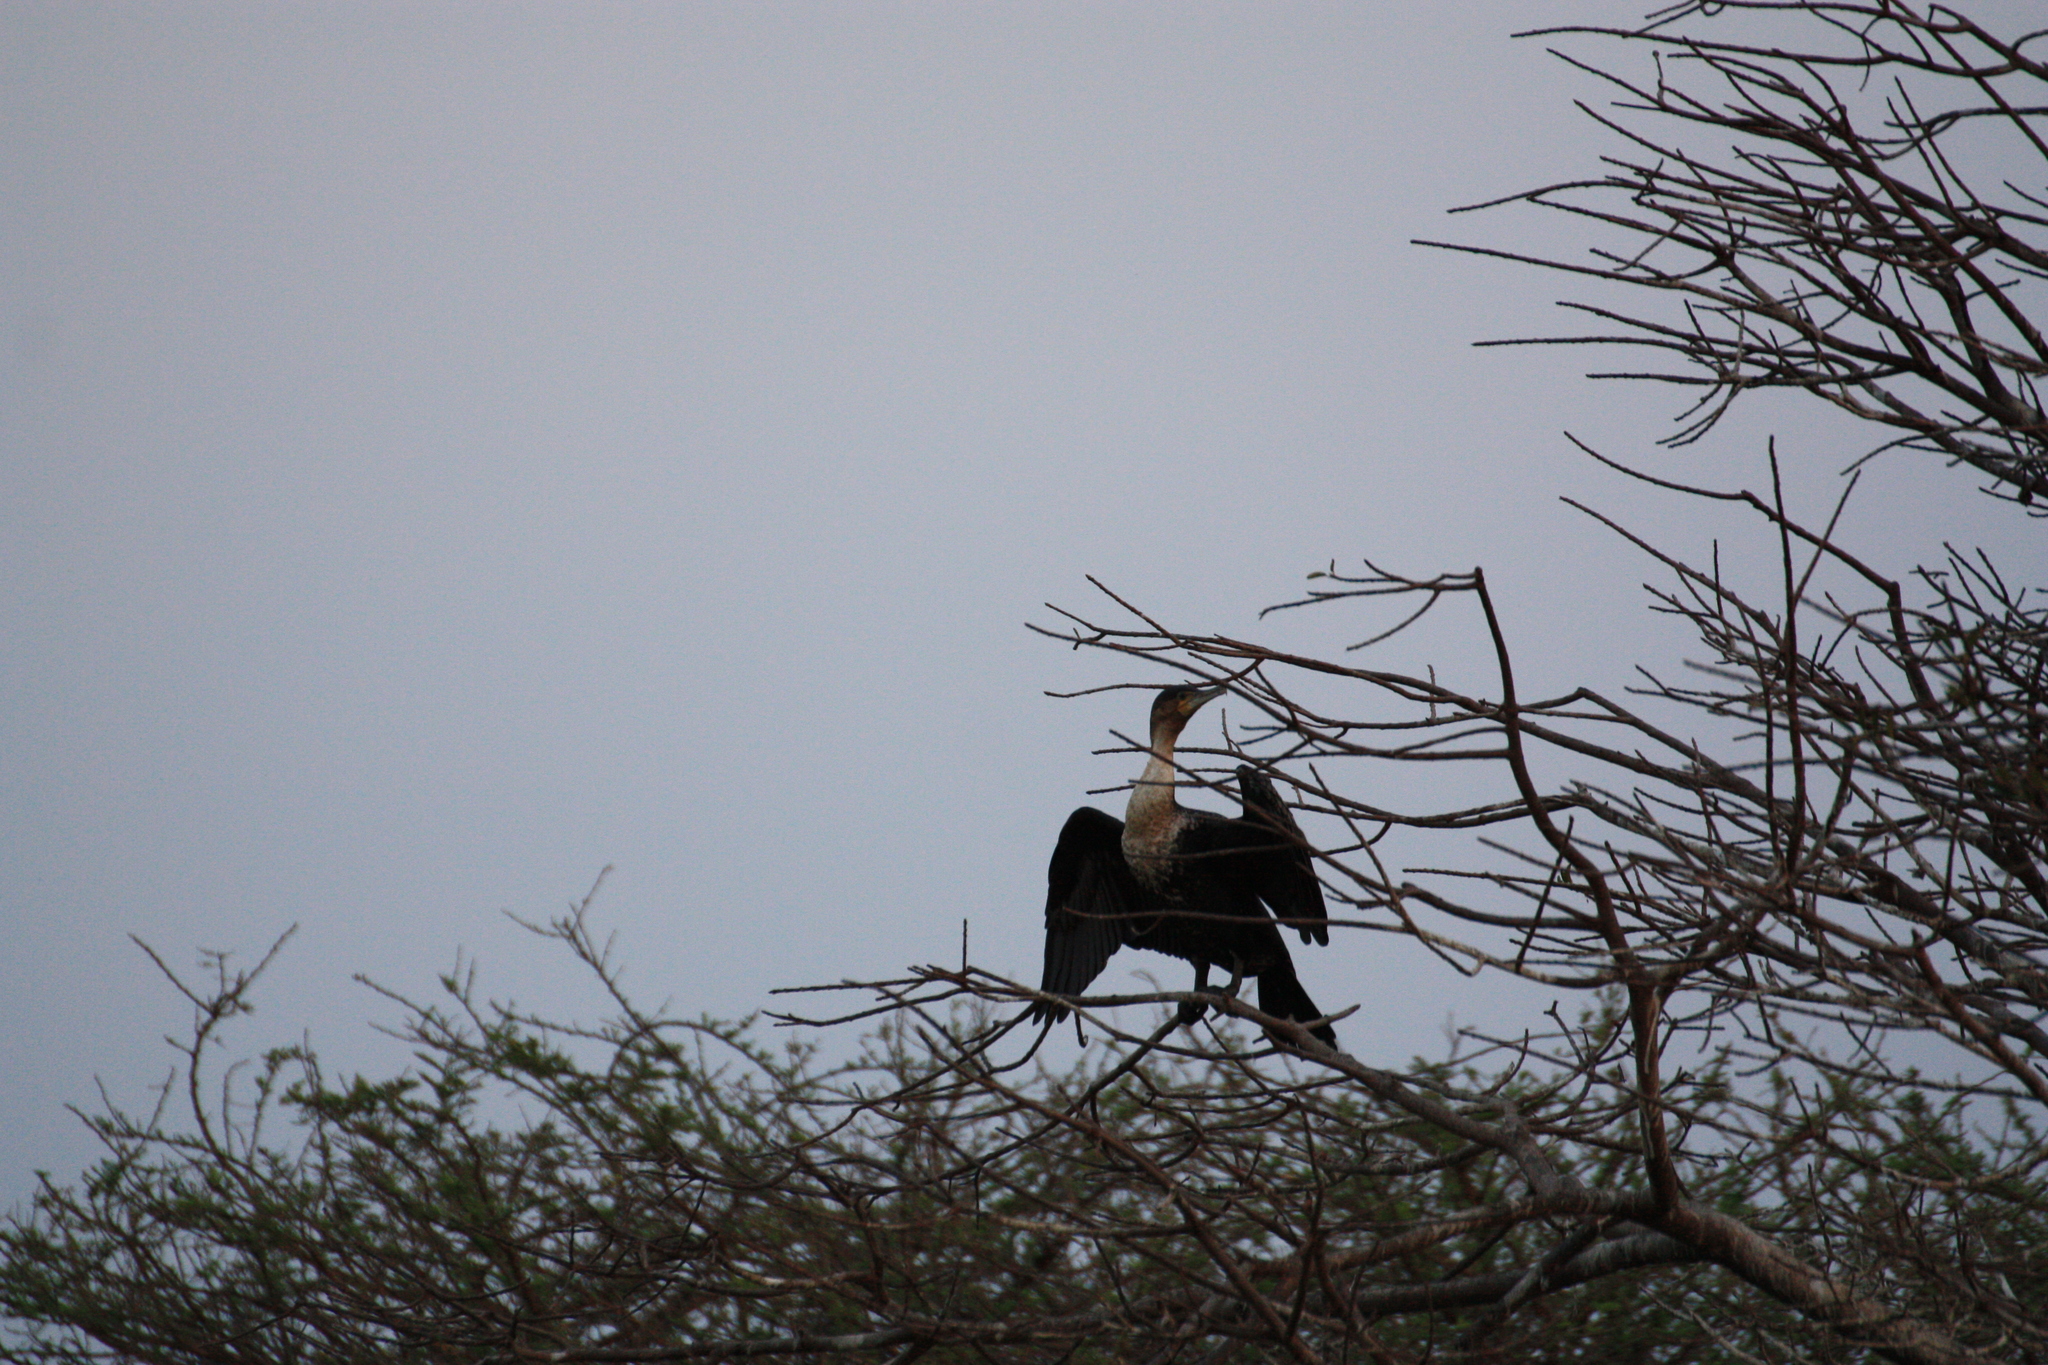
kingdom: Animalia
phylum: Chordata
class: Aves
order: Suliformes
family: Phalacrocoracidae
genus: Phalacrocorax
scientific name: Phalacrocorax carbo
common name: Great cormorant
